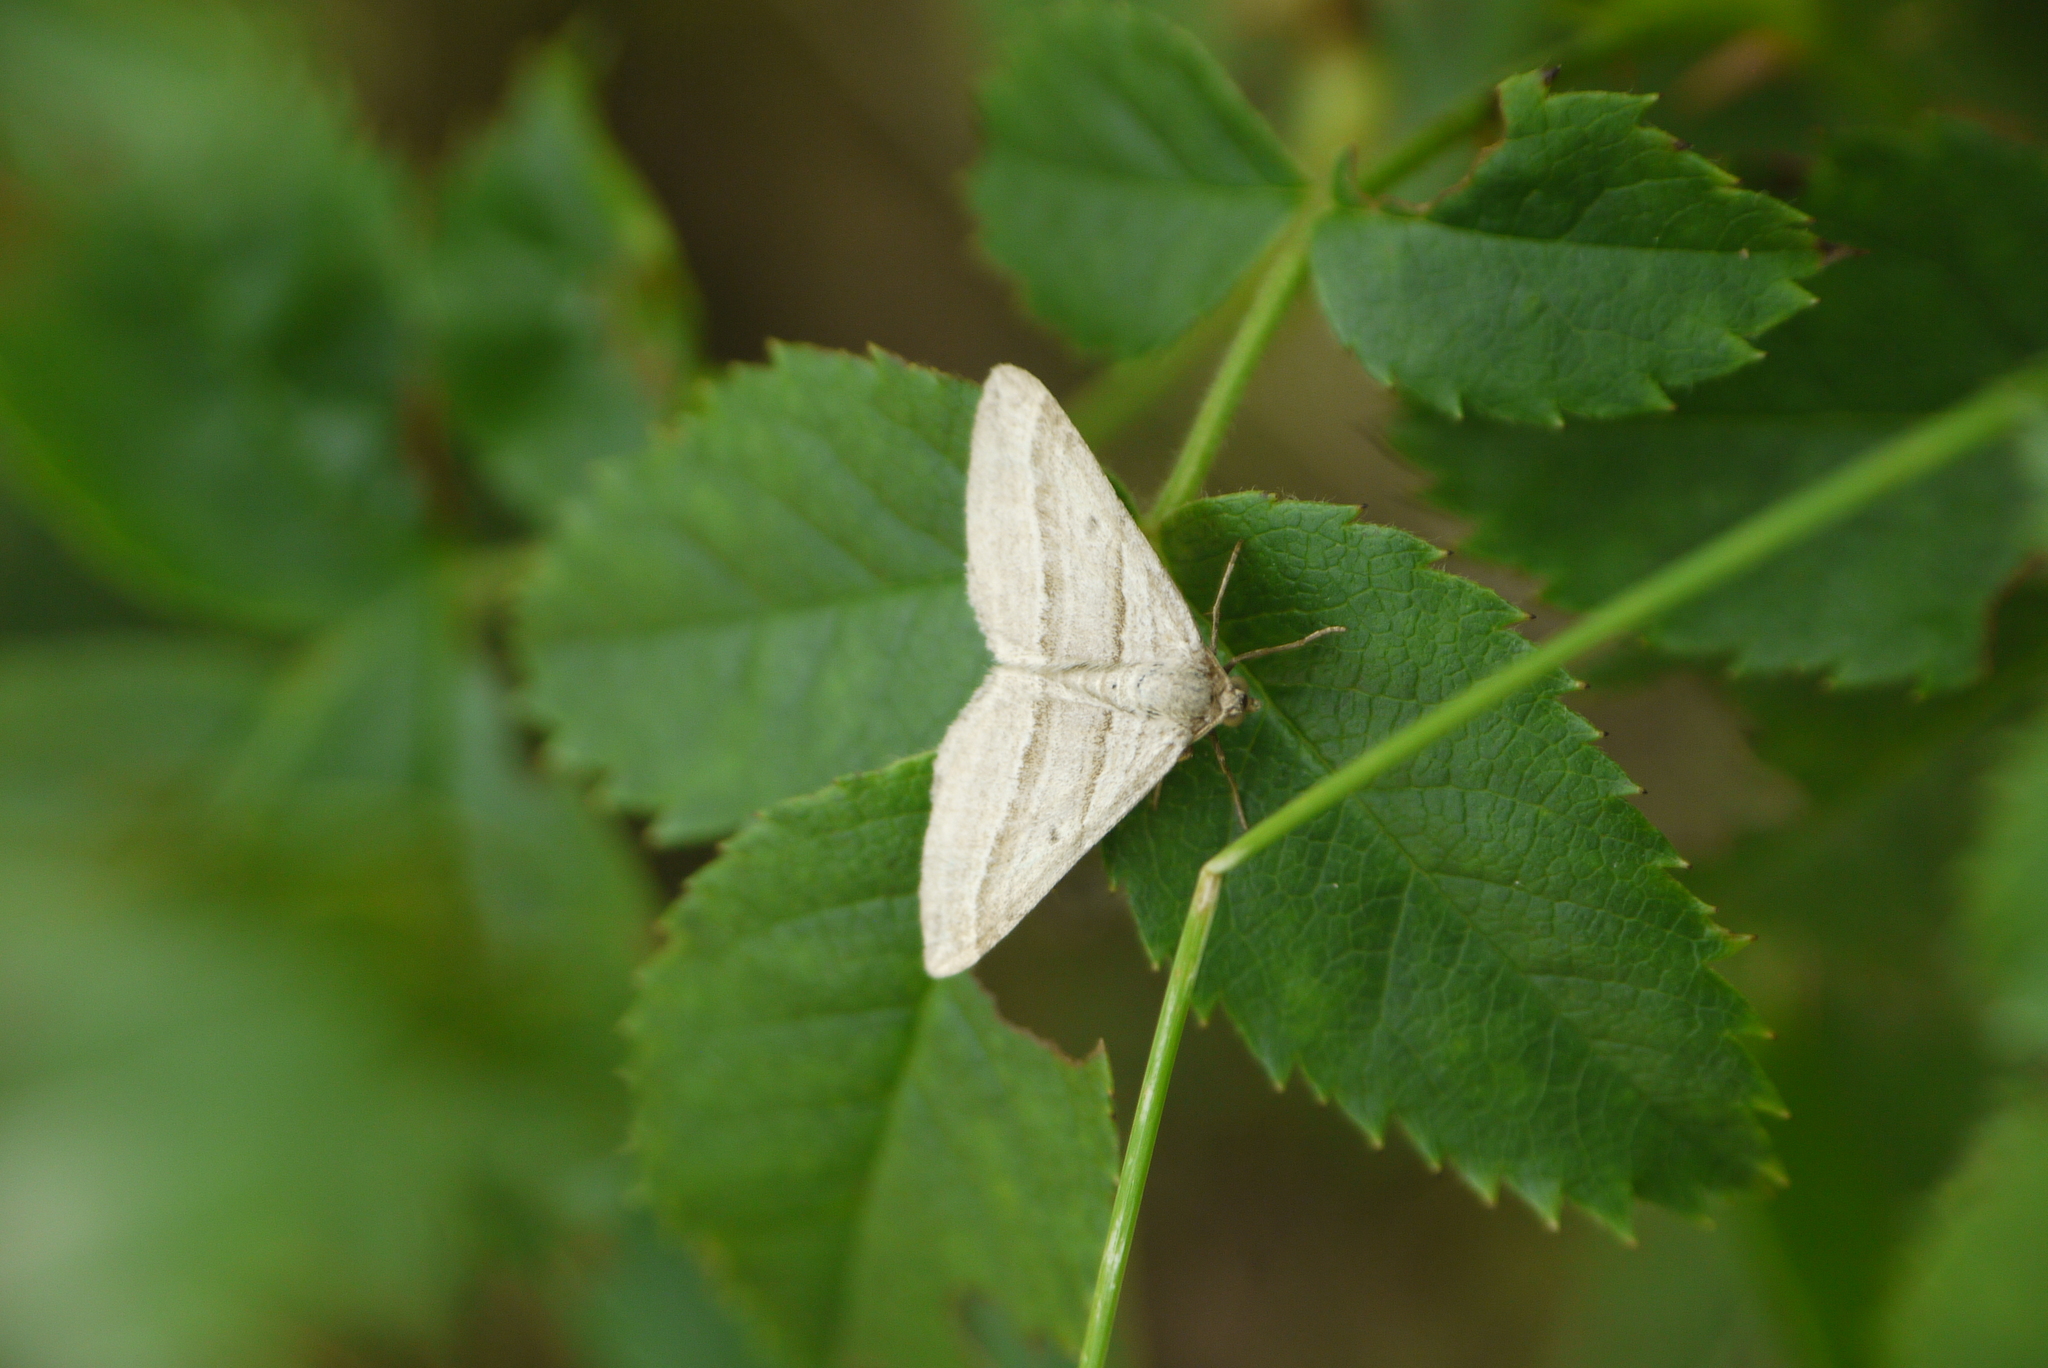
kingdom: Animalia
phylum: Arthropoda
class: Insecta
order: Lepidoptera
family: Geometridae
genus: Phibalapteryx
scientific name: Phibalapteryx virgata
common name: Oblique striped
